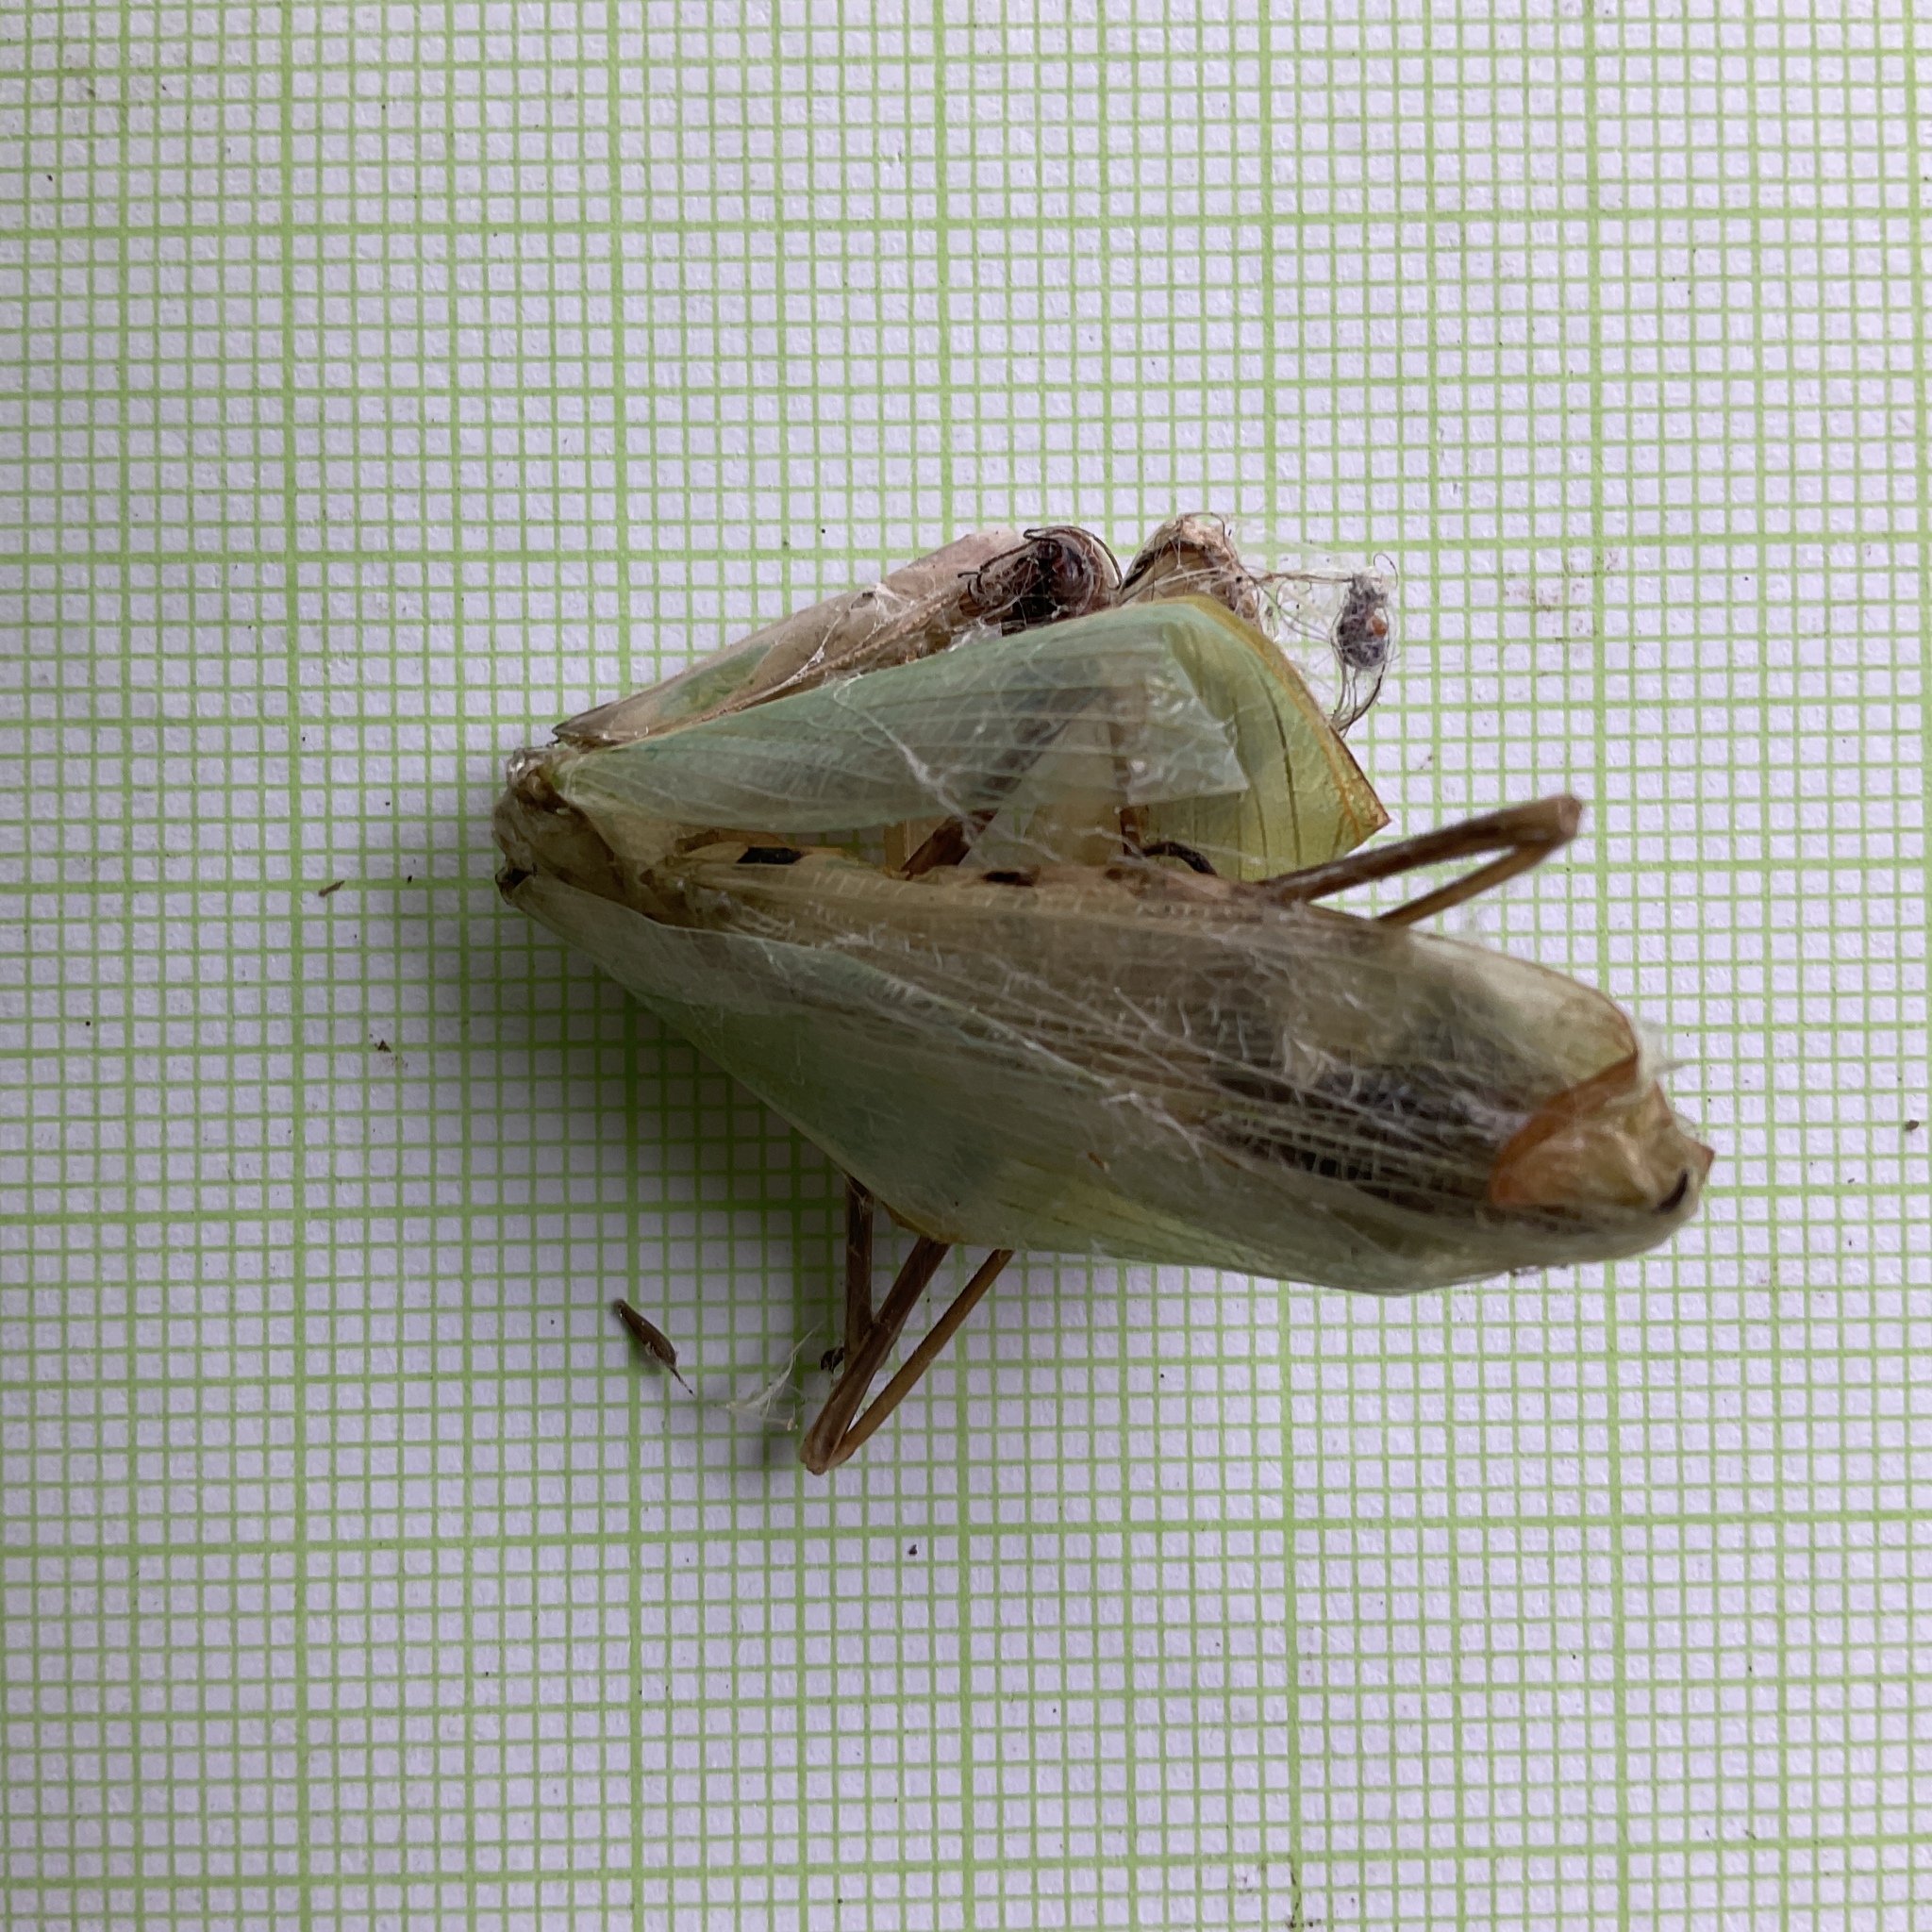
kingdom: Animalia
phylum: Arthropoda
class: Insecta
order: Mantodea
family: Mantidae
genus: Mantis
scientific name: Mantis religiosa
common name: Praying mantis
